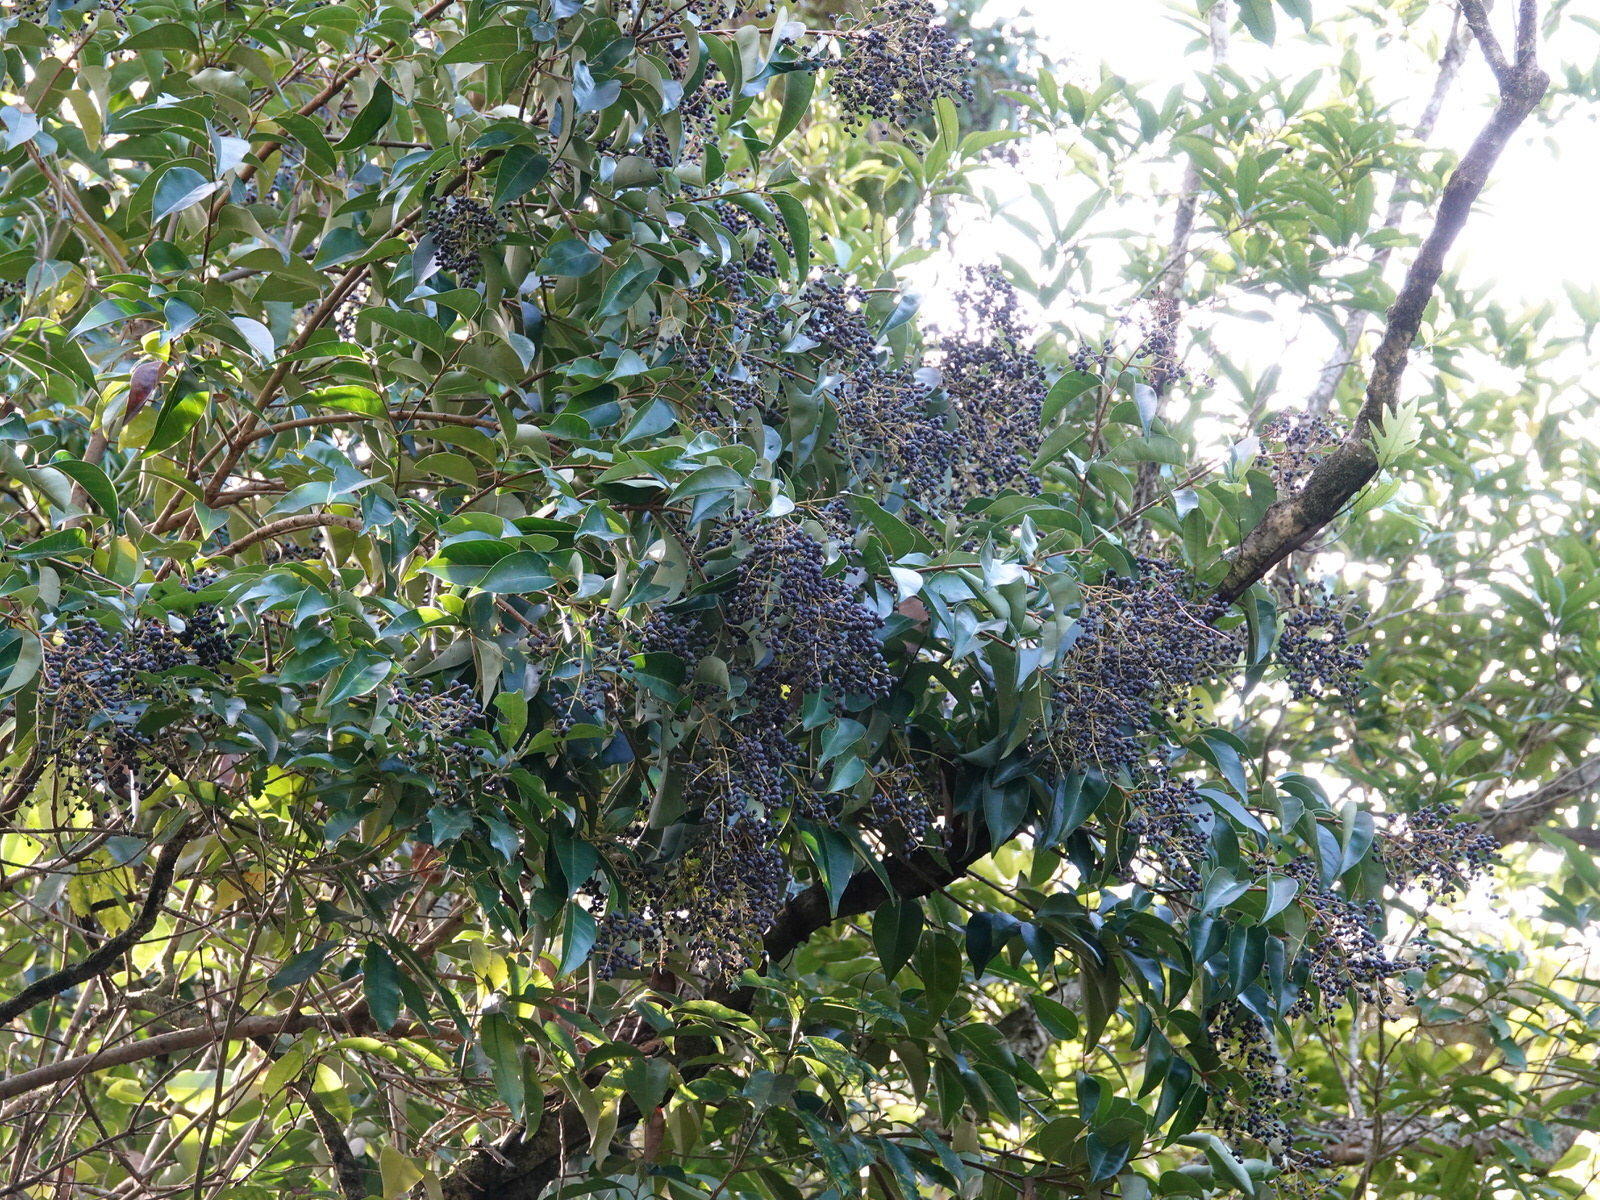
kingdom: Plantae
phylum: Tracheophyta
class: Magnoliopsida
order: Lamiales
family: Oleaceae
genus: Ligustrum
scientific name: Ligustrum lucidum
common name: Glossy privet
